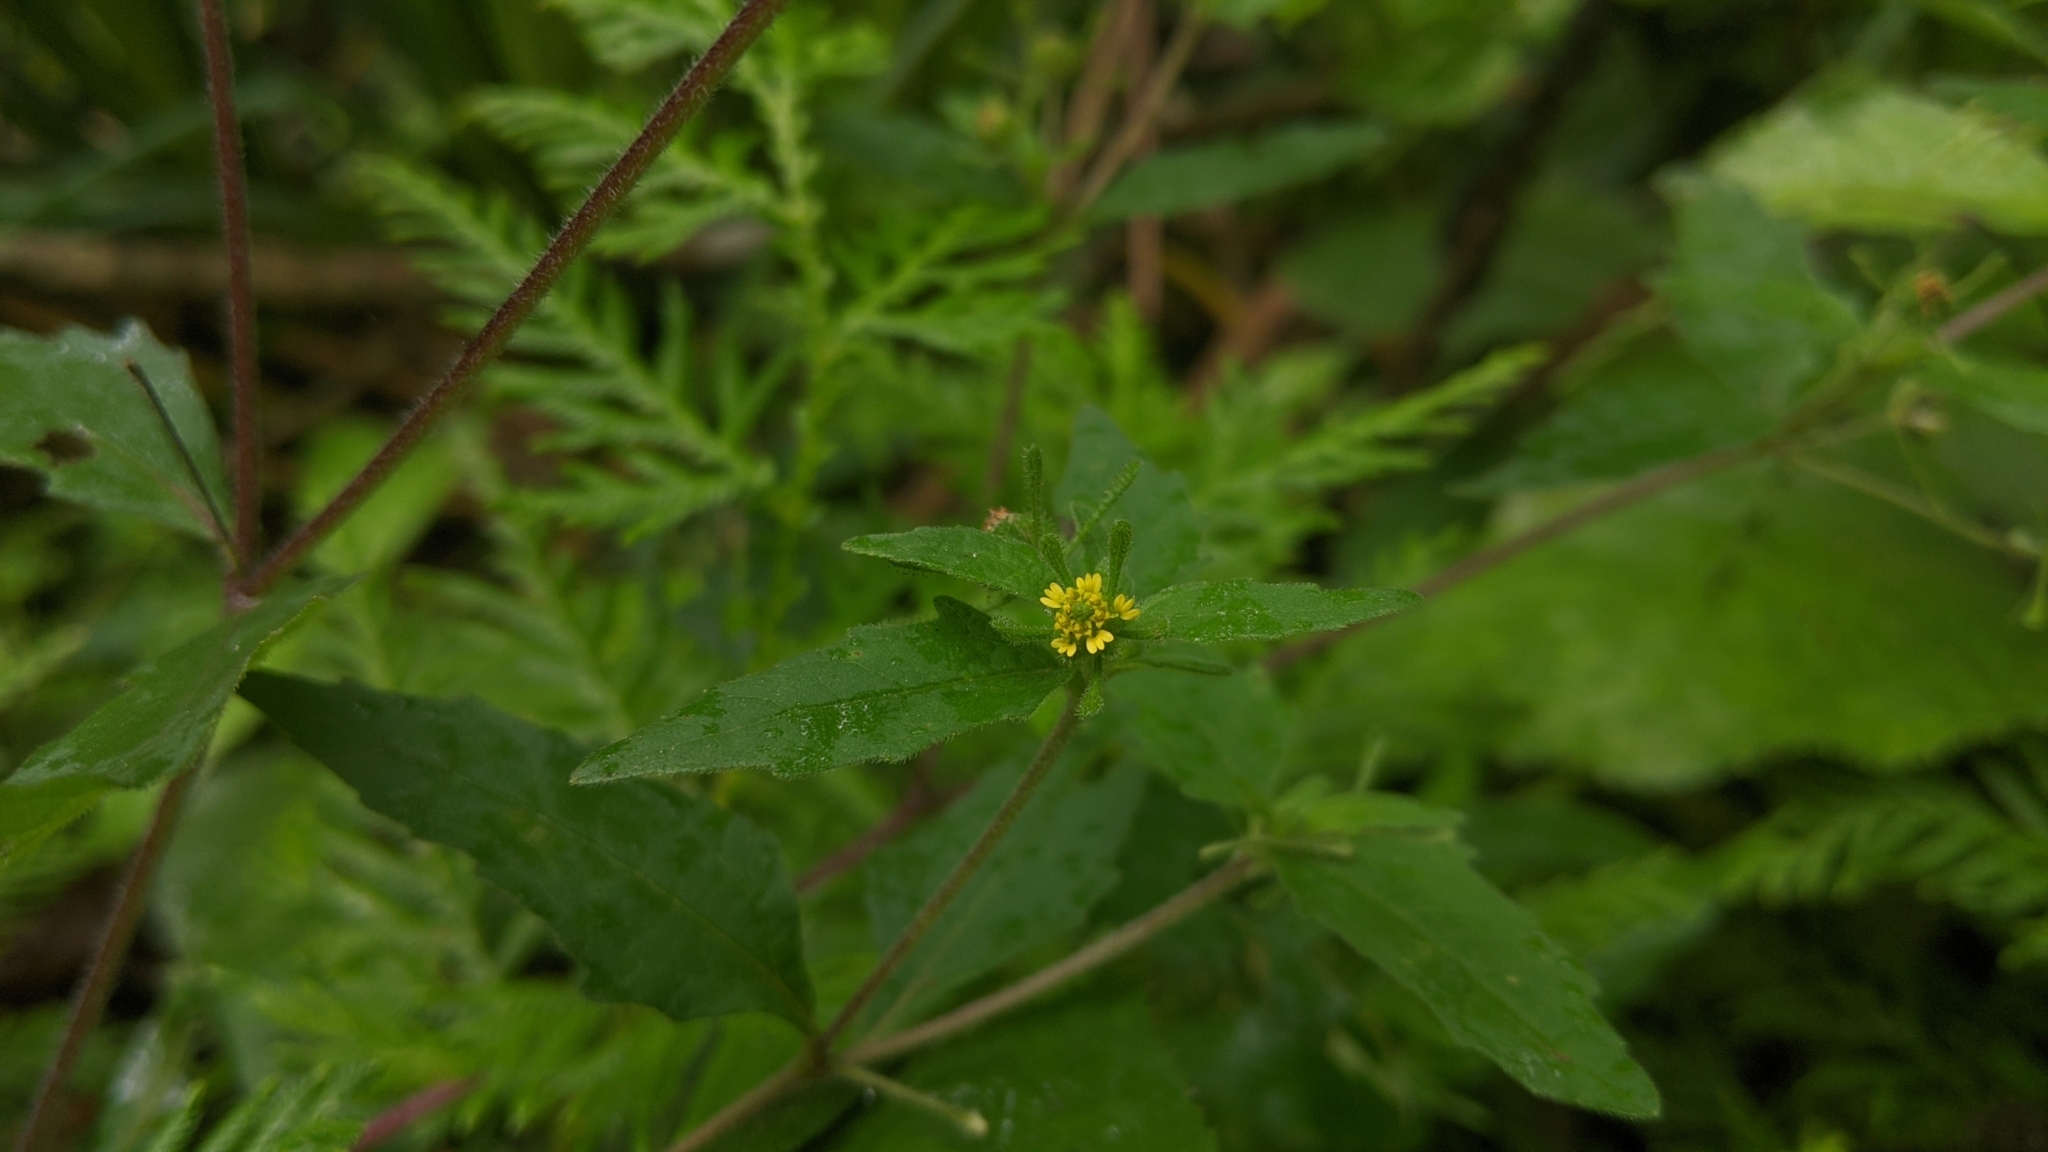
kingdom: Plantae
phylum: Tracheophyta
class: Magnoliopsida
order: Asterales
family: Asteraceae
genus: Sigesbeckia
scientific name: Sigesbeckia orientalis
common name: Eastern st paul's-wort
